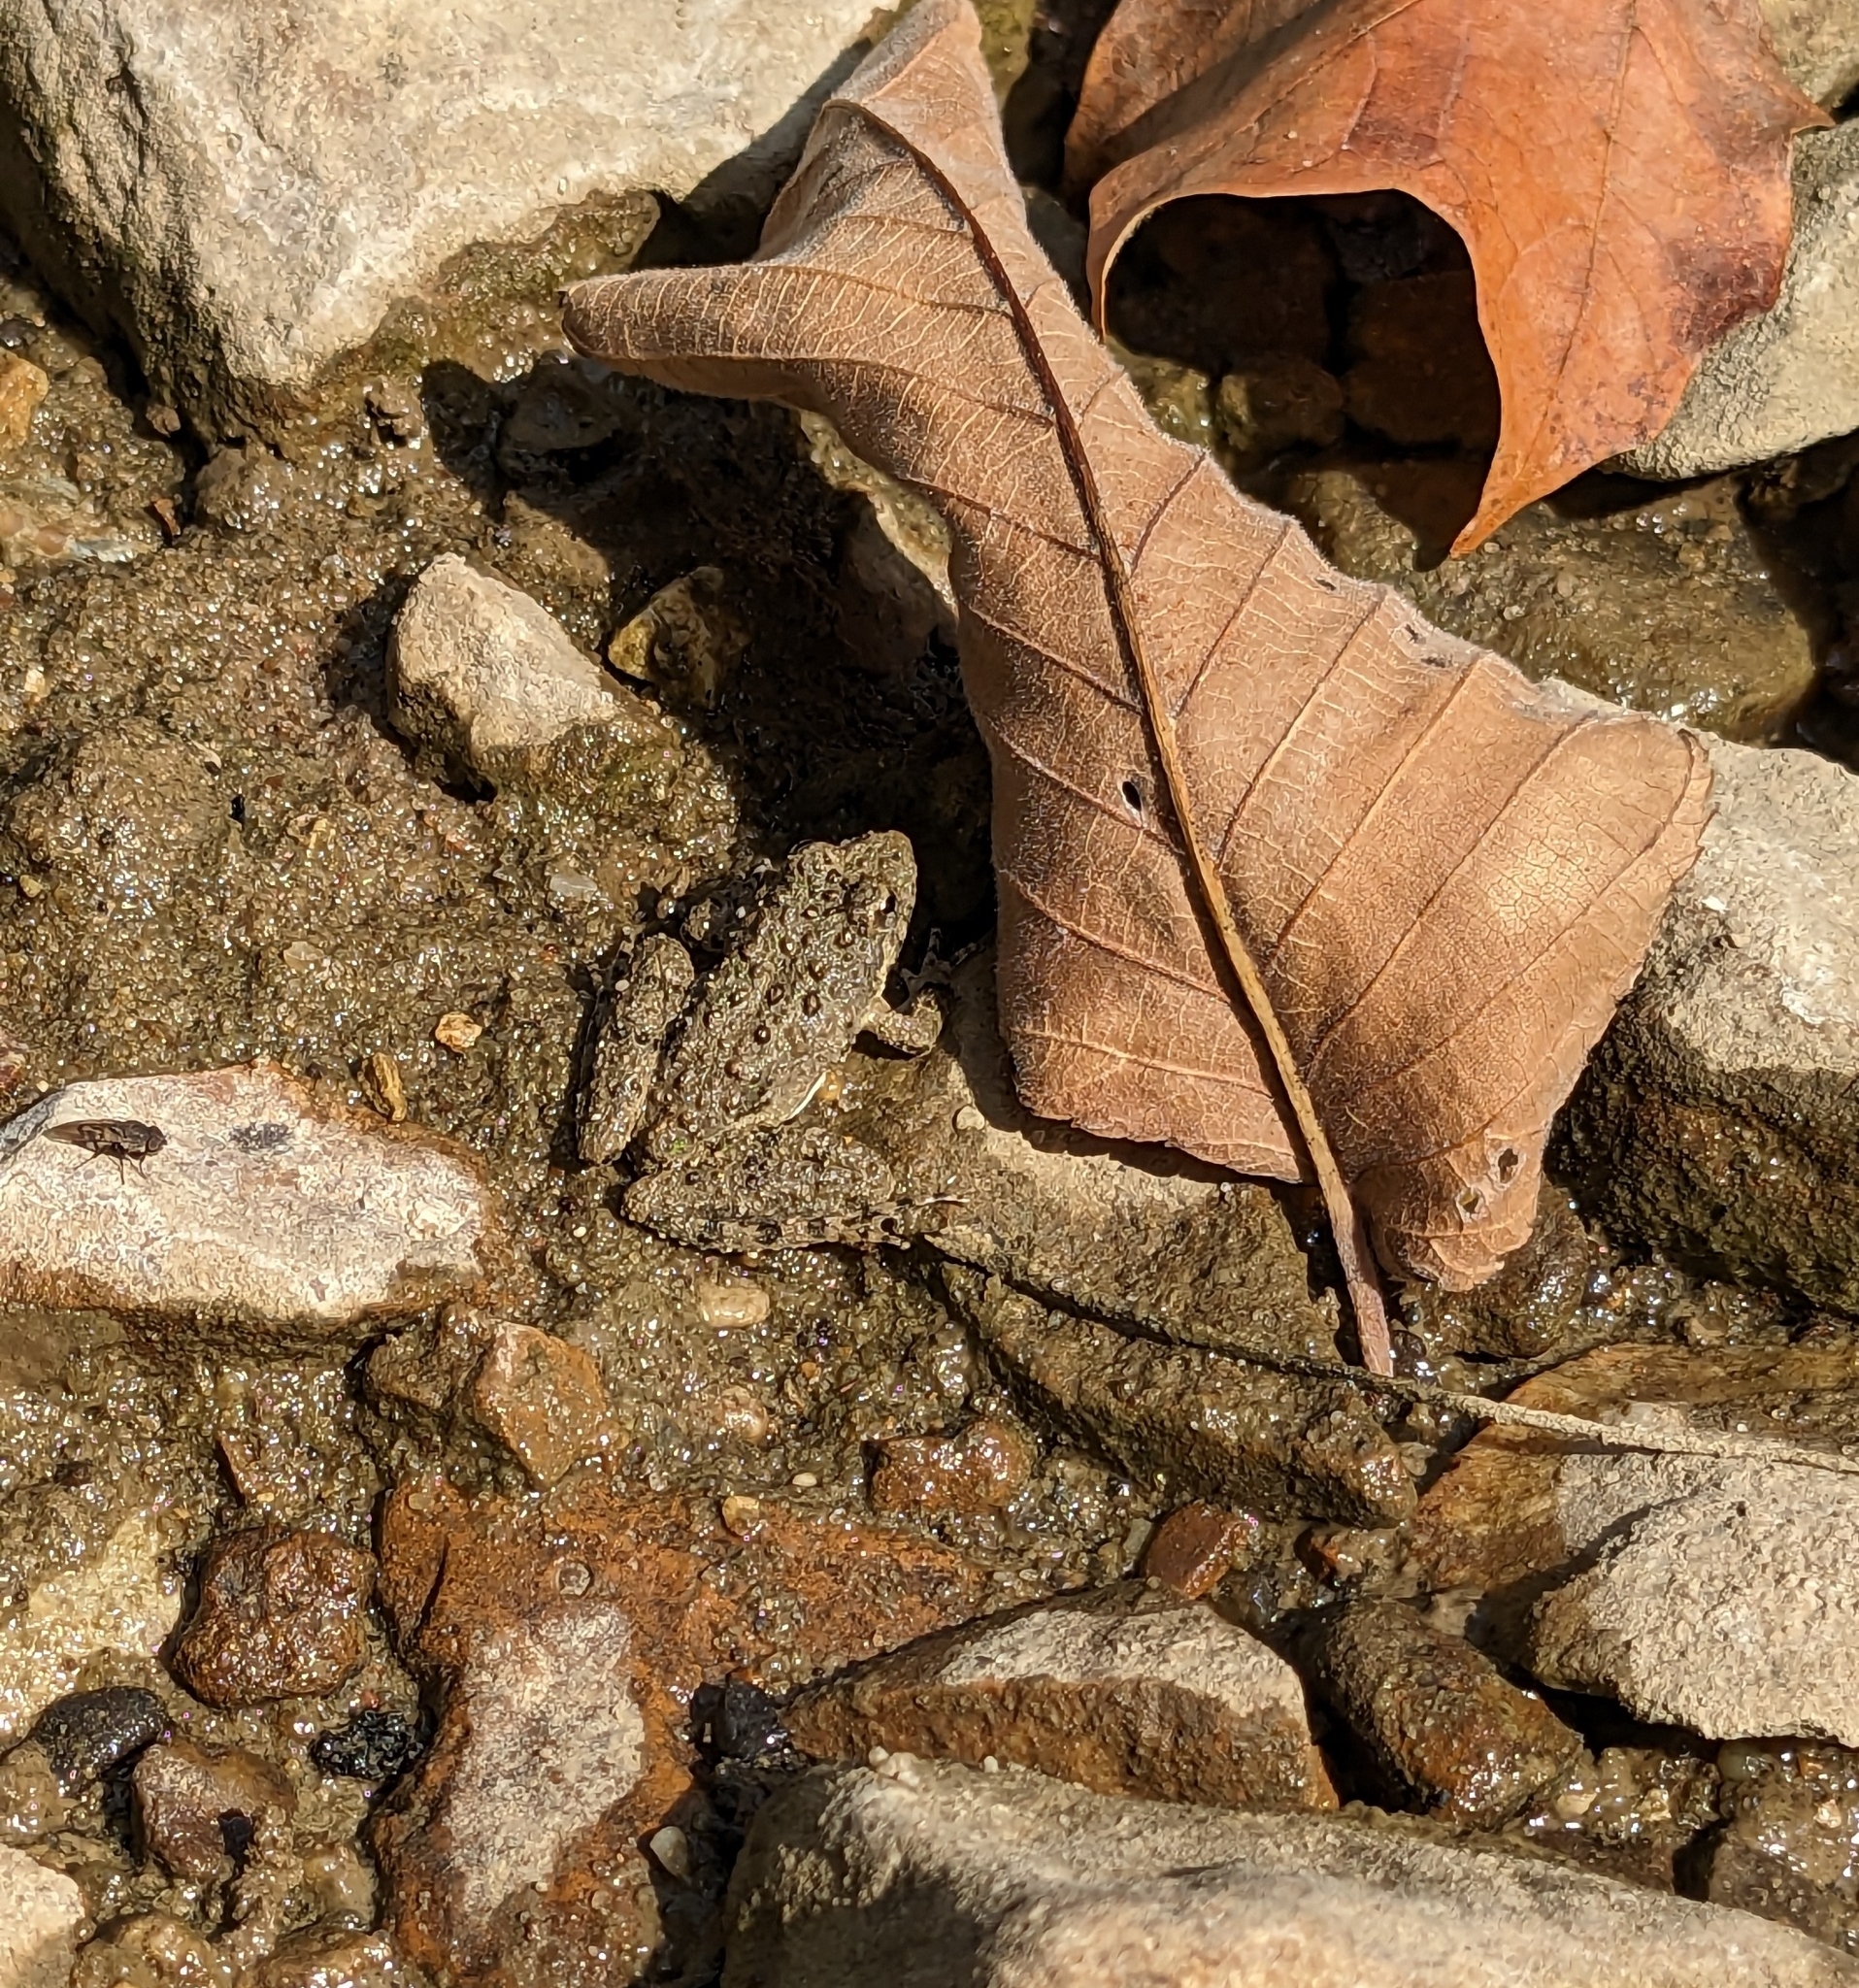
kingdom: Animalia
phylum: Chordata
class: Amphibia
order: Anura
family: Hylidae
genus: Acris
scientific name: Acris blanchardi
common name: Blanchard's cricket frog
